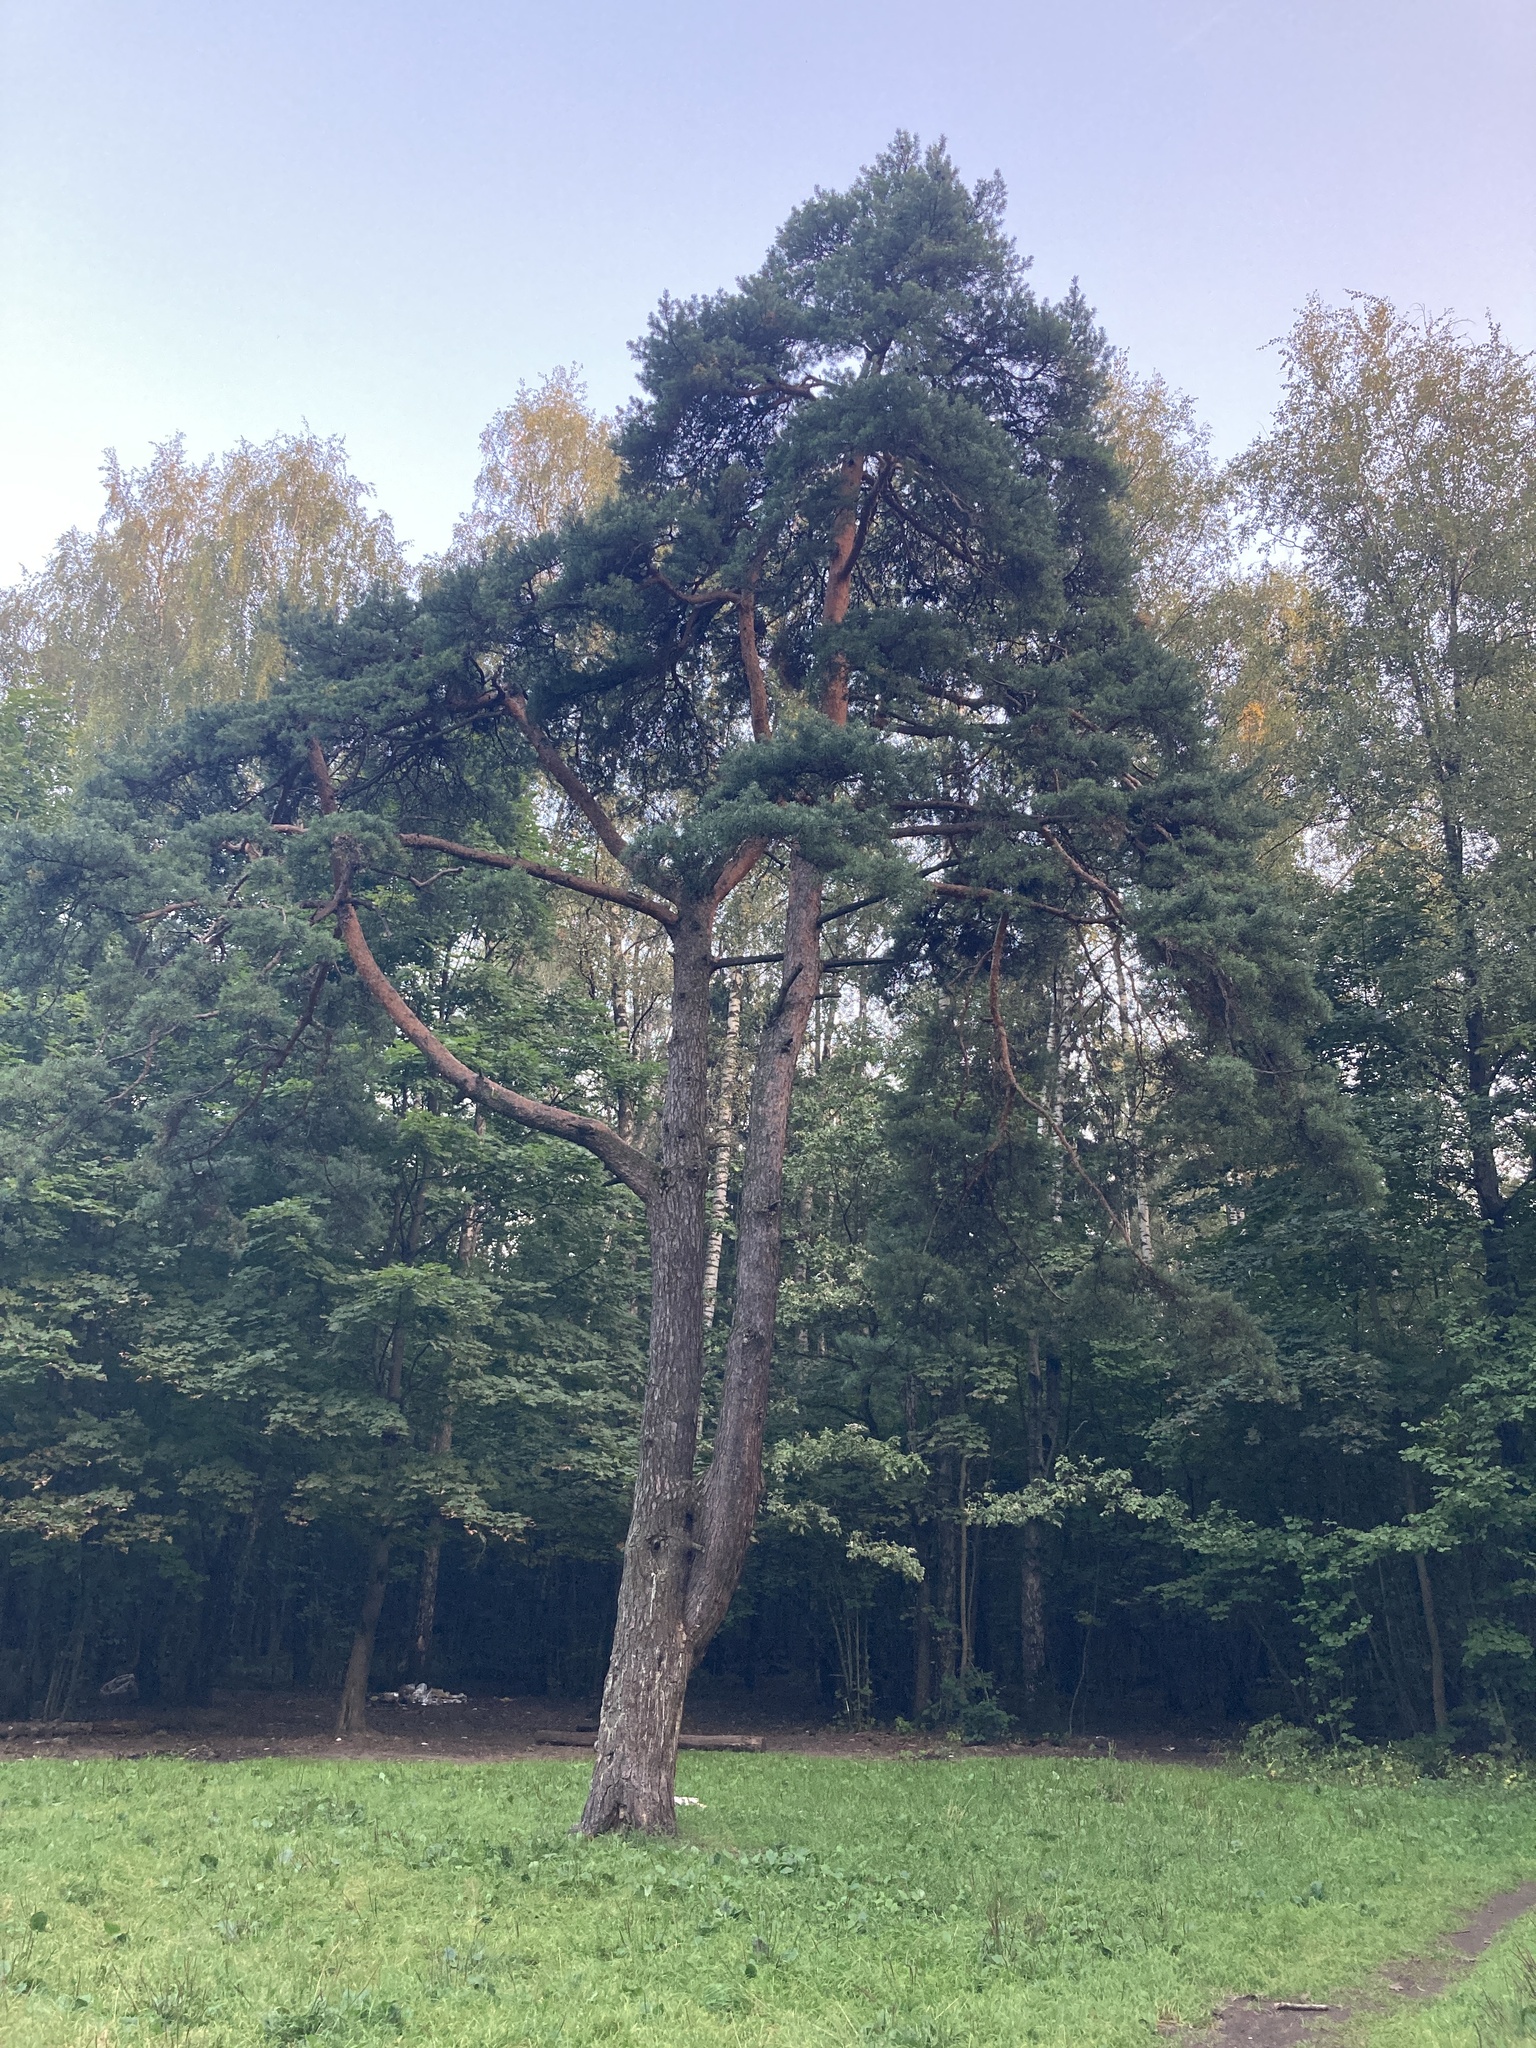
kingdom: Plantae
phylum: Tracheophyta
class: Pinopsida
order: Pinales
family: Pinaceae
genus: Pinus
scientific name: Pinus sylvestris
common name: Scots pine
